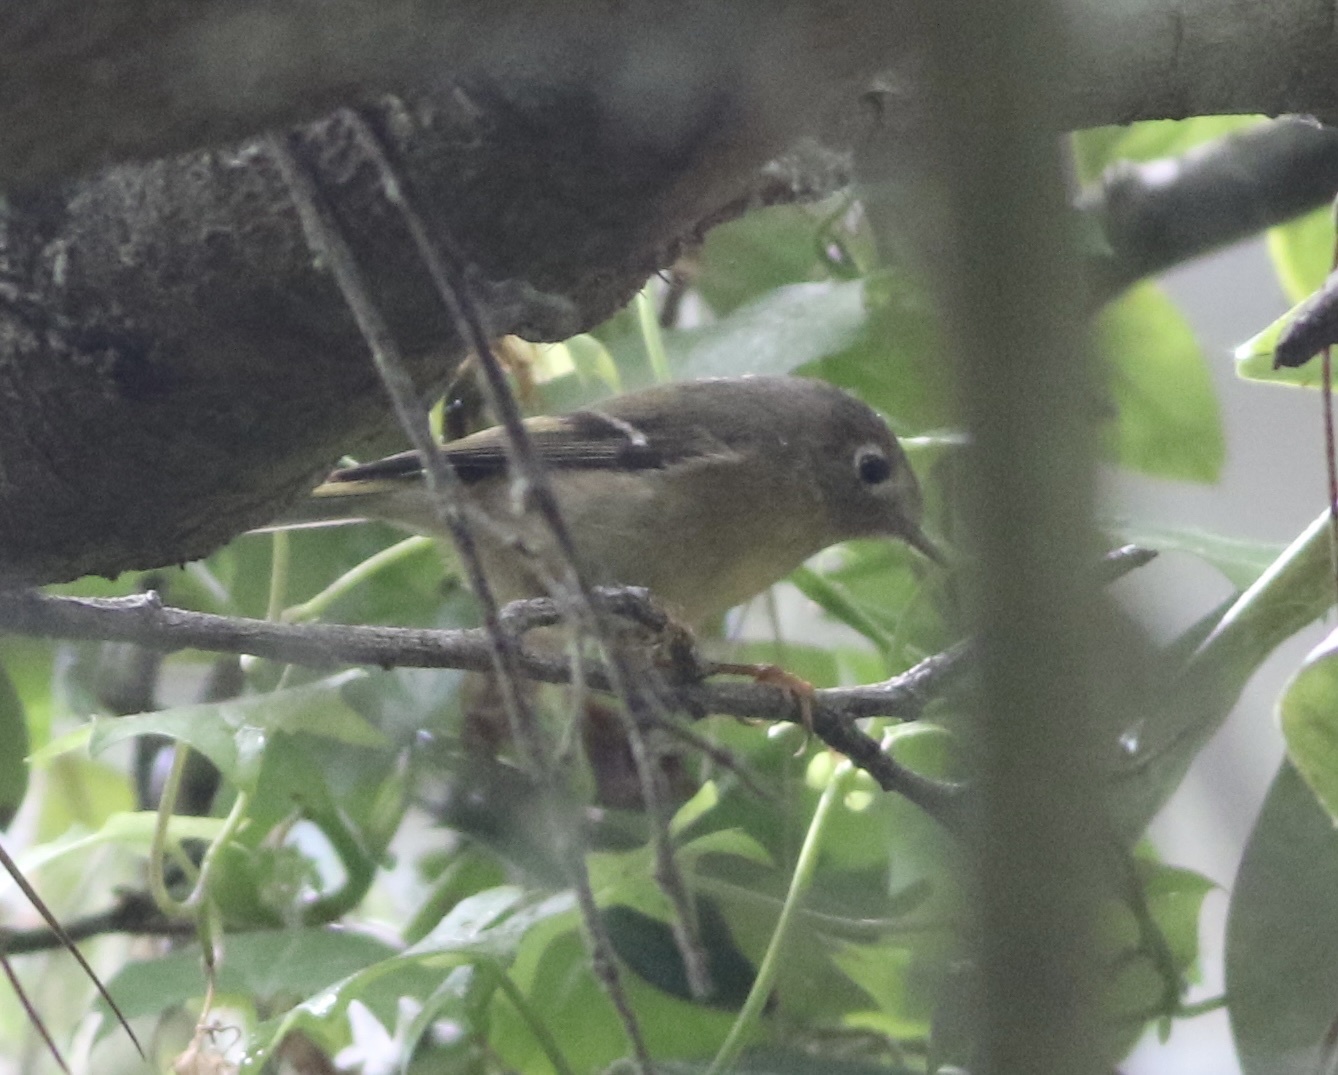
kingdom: Animalia
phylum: Chordata
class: Aves
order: Passeriformes
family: Regulidae
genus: Regulus
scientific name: Regulus calendula
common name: Ruby-crowned kinglet
